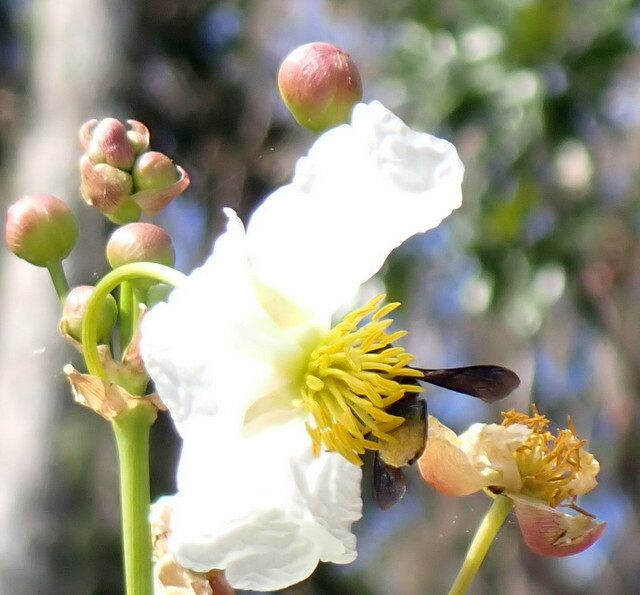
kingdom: Animalia
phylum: Arthropoda
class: Insecta
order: Hymenoptera
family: Megachilidae
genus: Megachile
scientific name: Megachile xylocopoides
